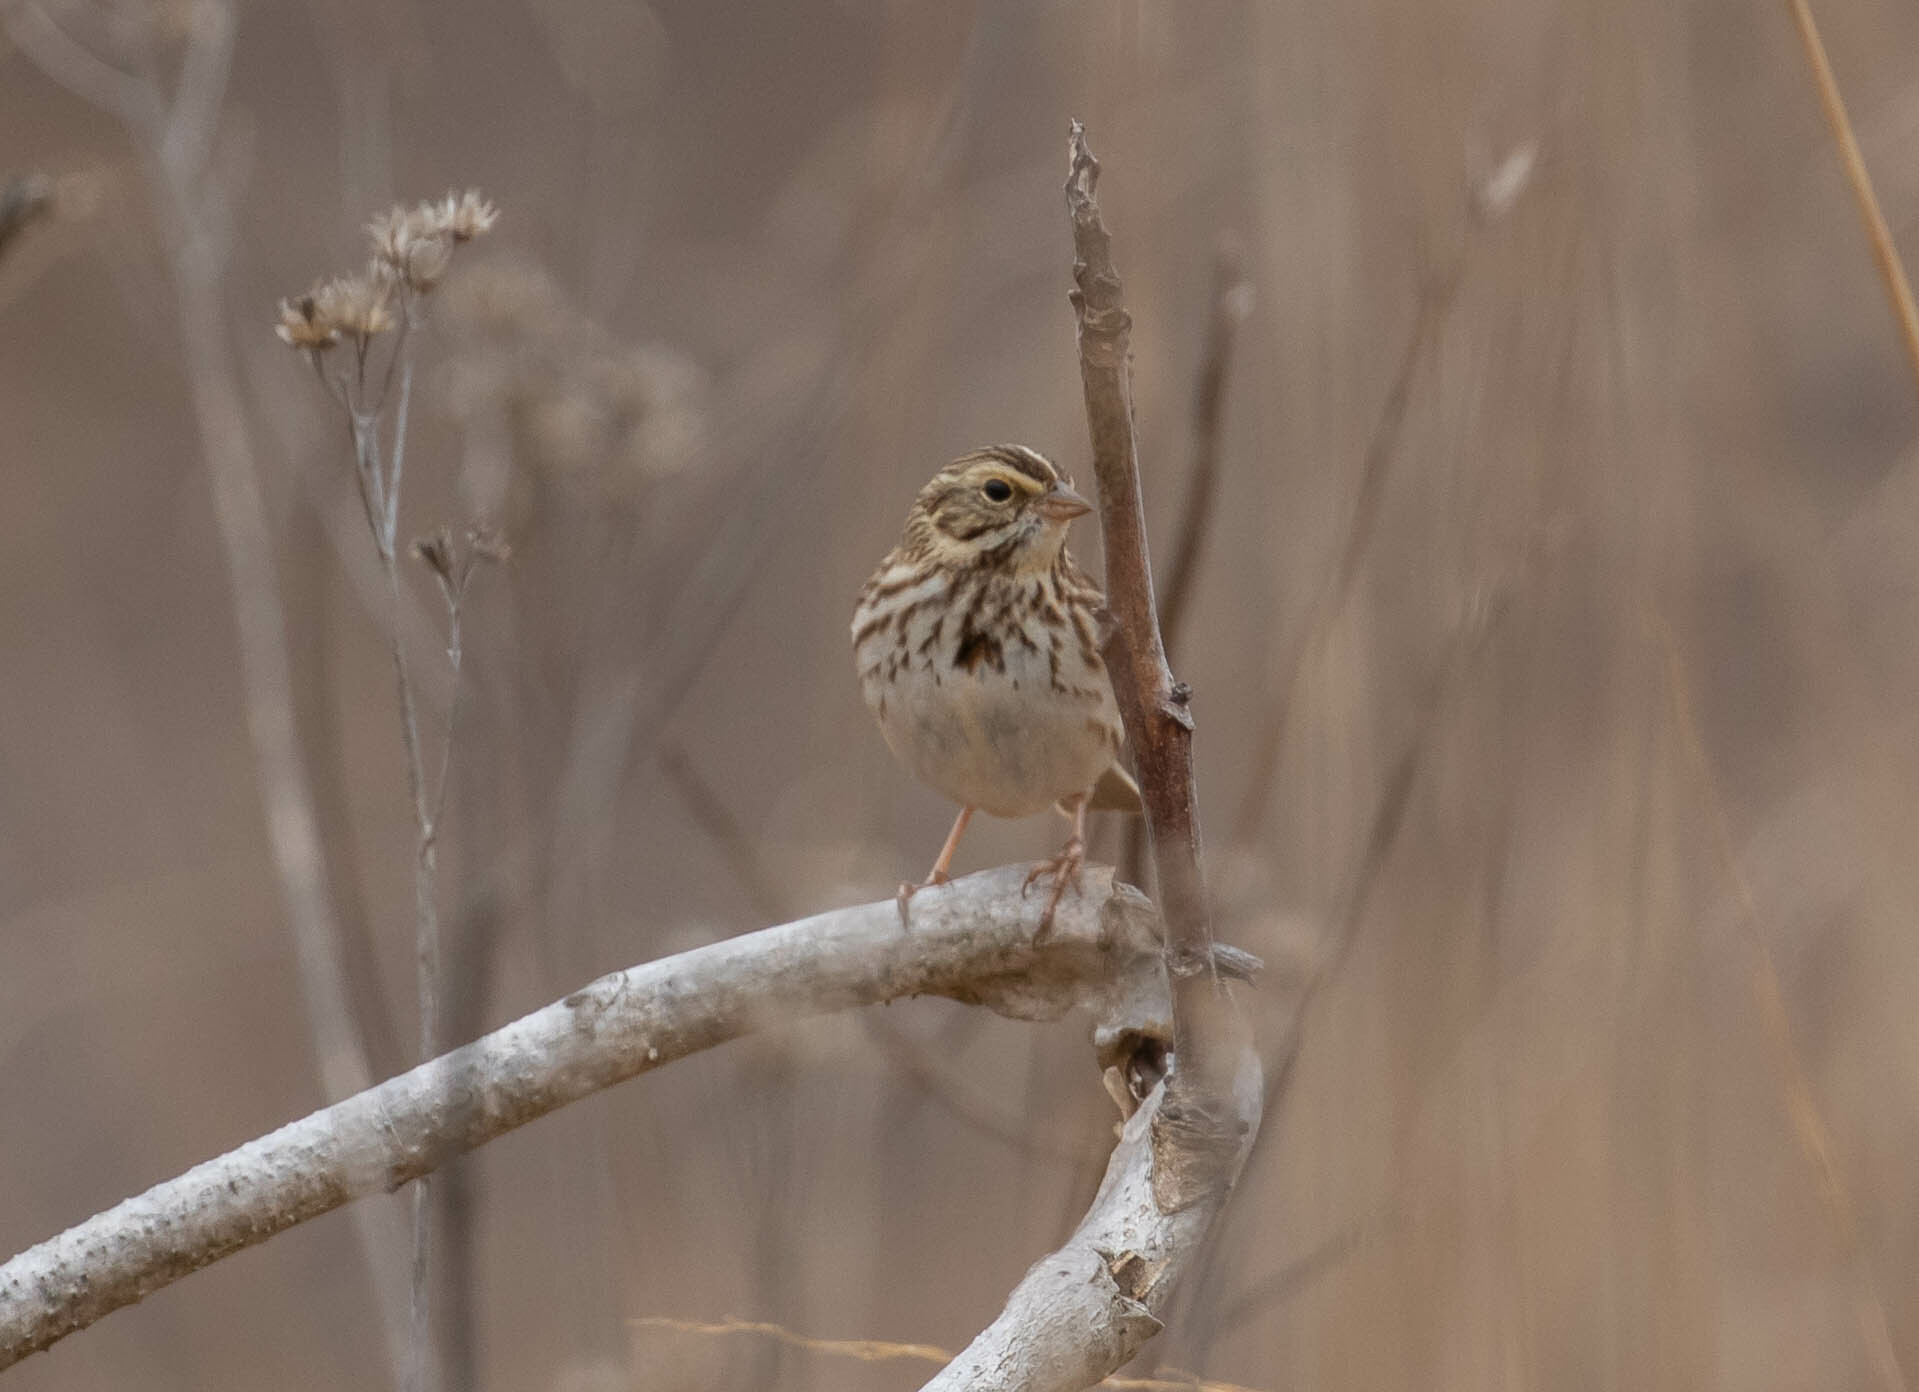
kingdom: Animalia
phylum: Chordata
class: Aves
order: Passeriformes
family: Passerellidae
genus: Passerculus
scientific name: Passerculus sandwichensis
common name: Savannah sparrow
